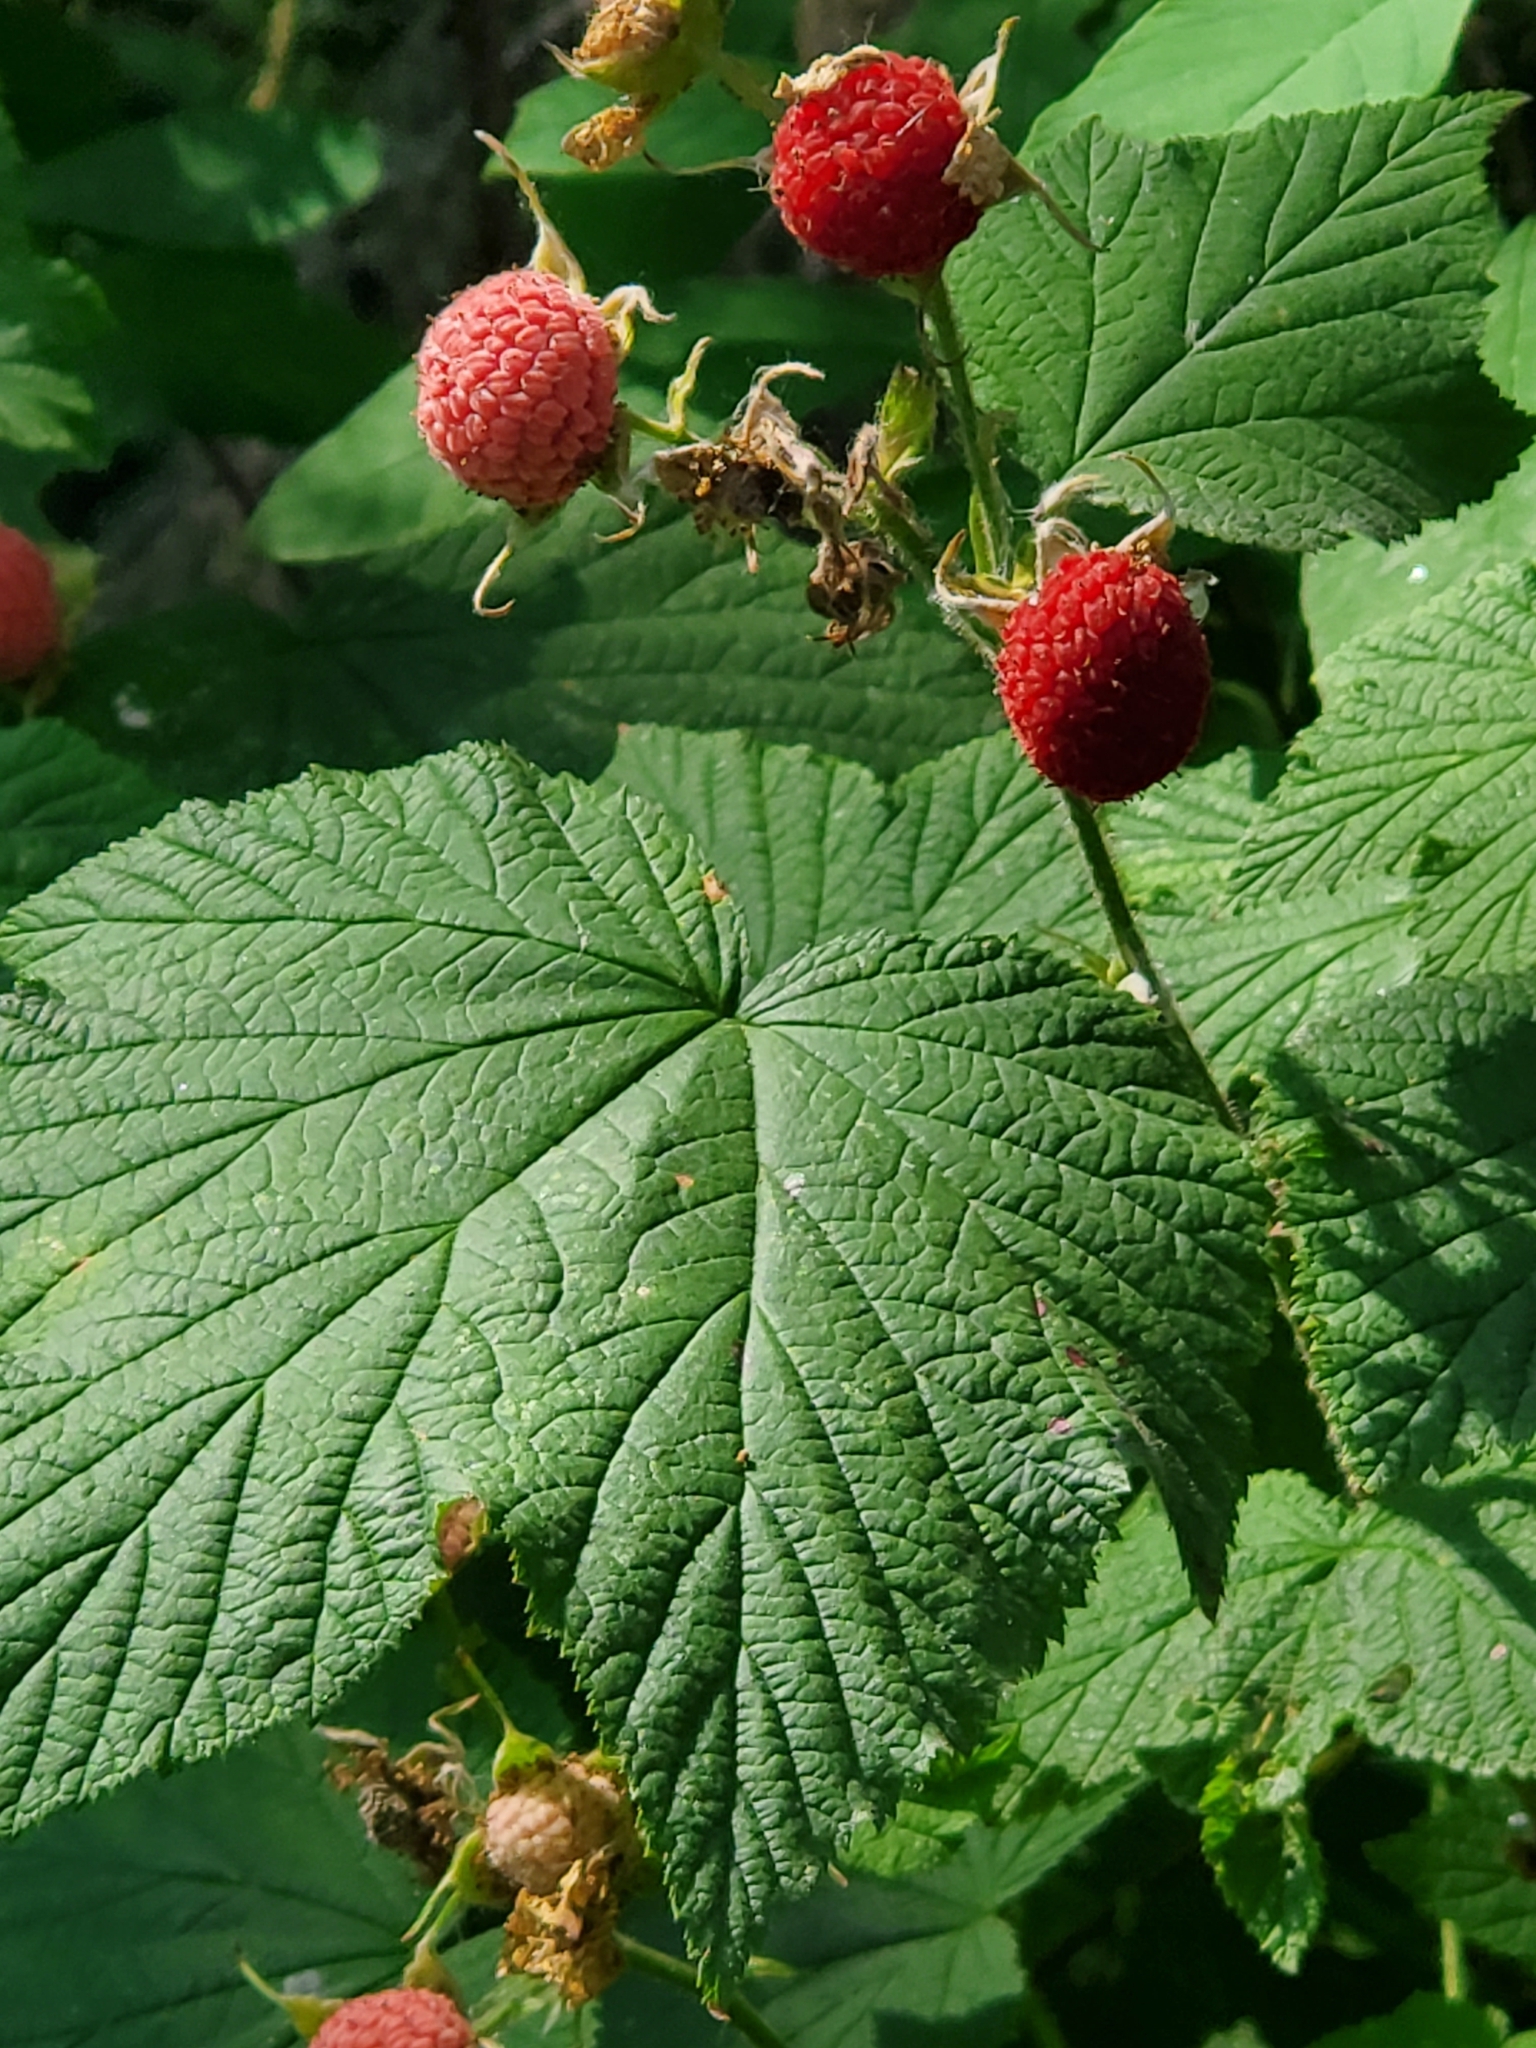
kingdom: Plantae
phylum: Tracheophyta
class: Magnoliopsida
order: Rosales
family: Rosaceae
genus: Rubus
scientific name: Rubus parviflorus
